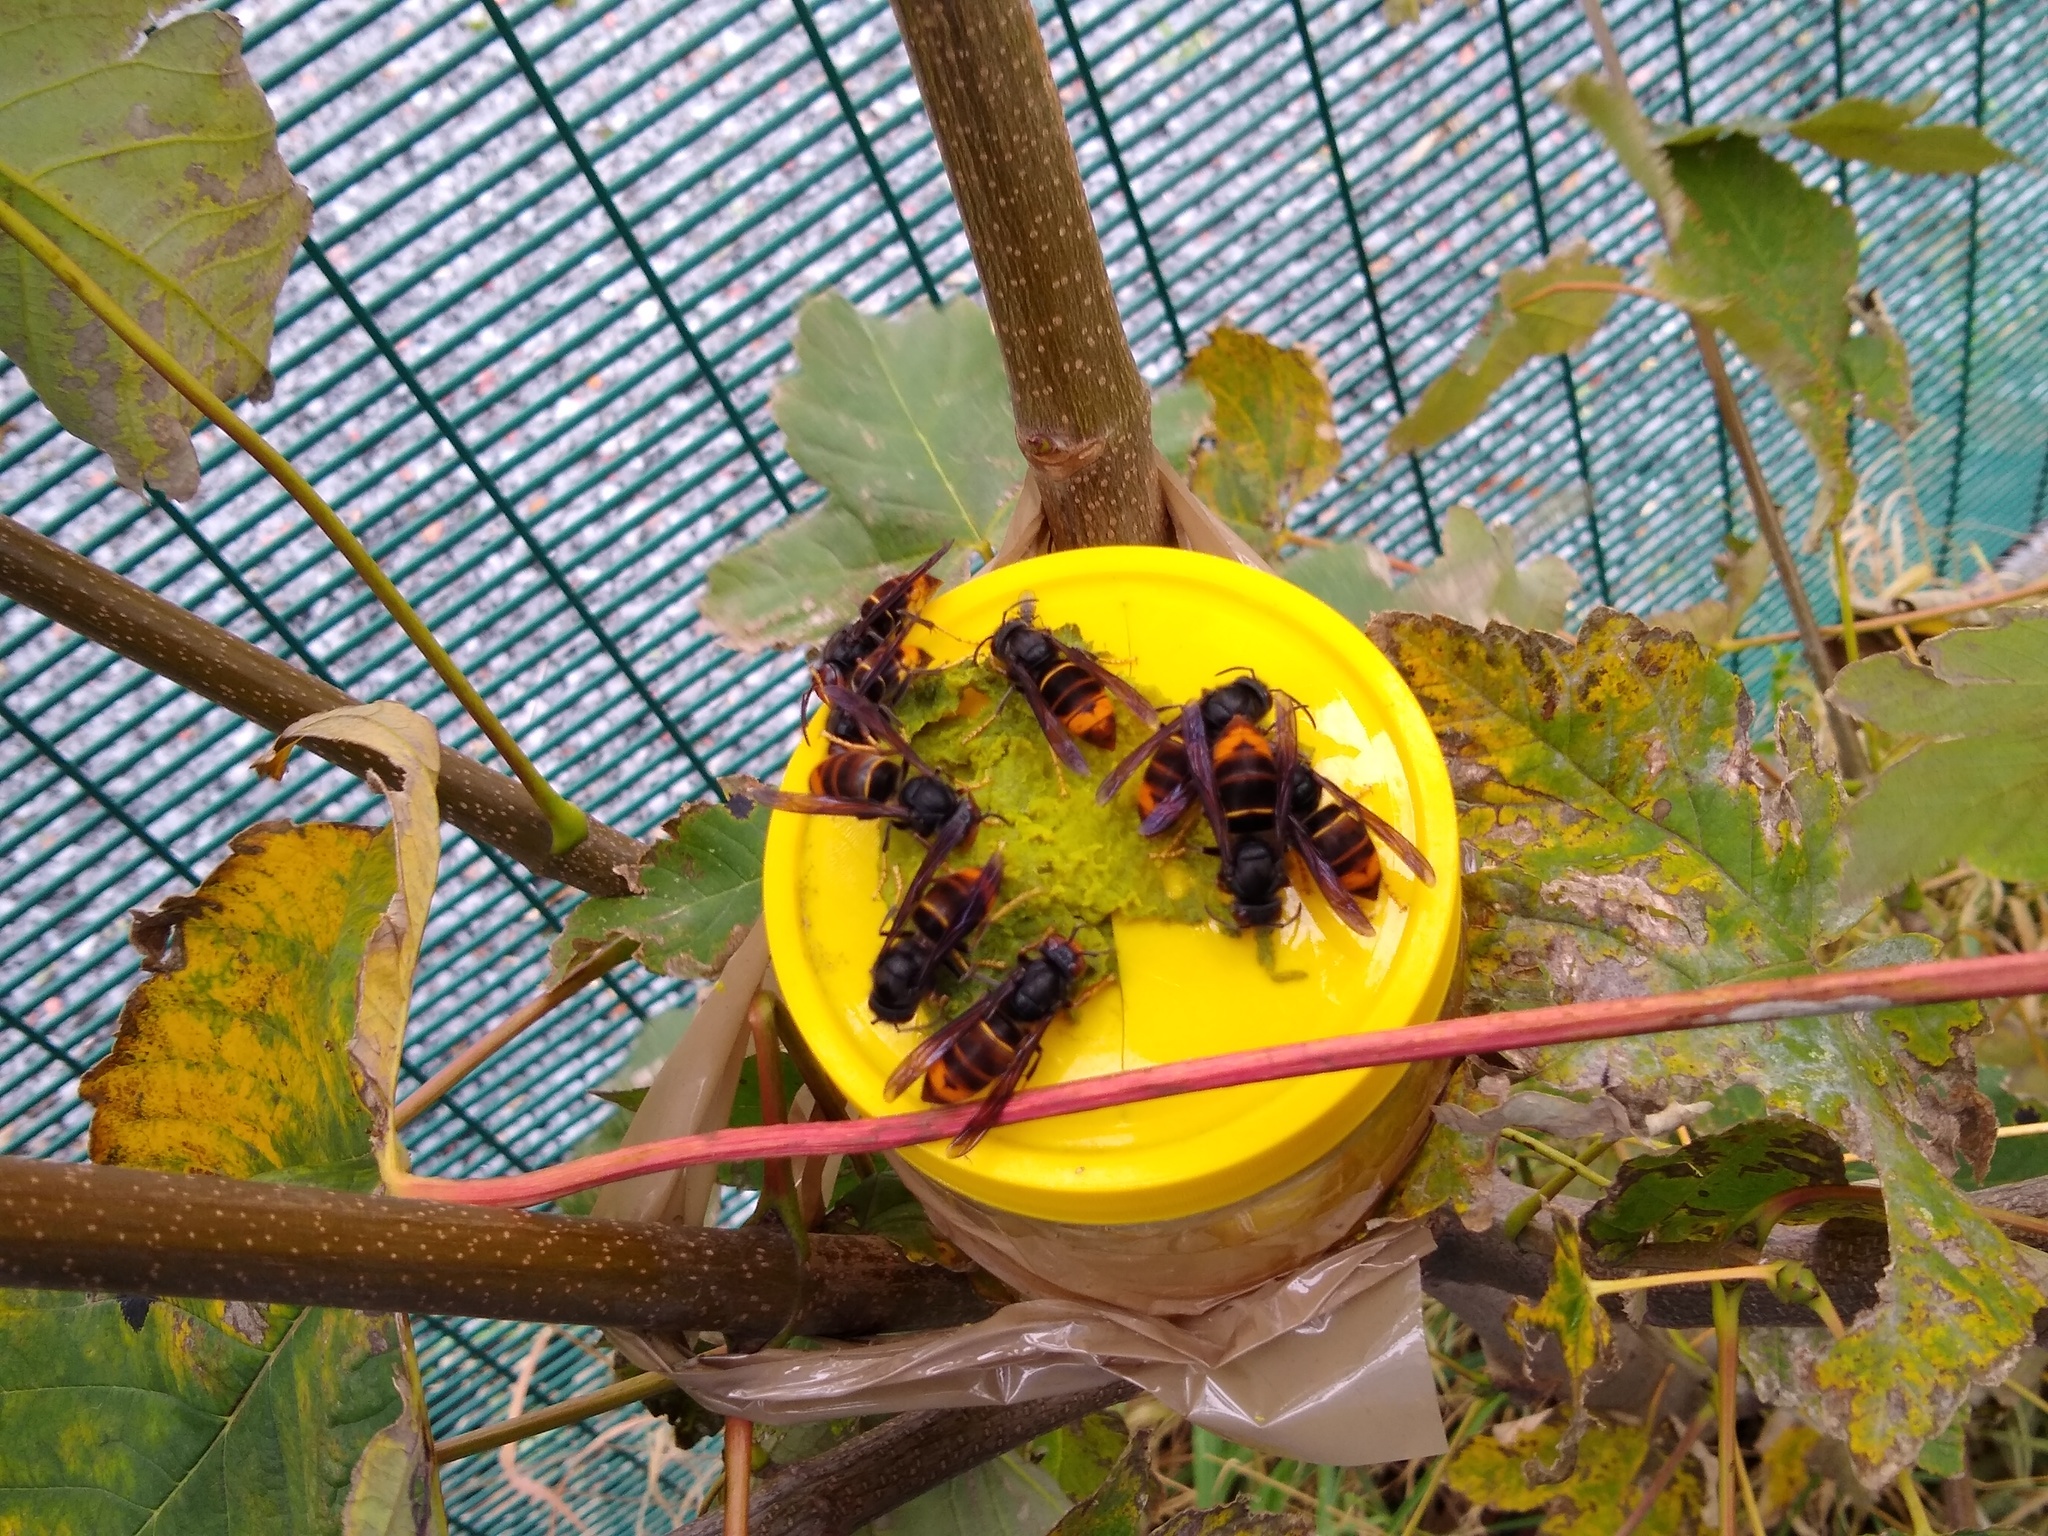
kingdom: Animalia
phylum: Arthropoda
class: Insecta
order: Hymenoptera
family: Vespidae
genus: Vespa
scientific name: Vespa velutina
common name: Asian hornet
